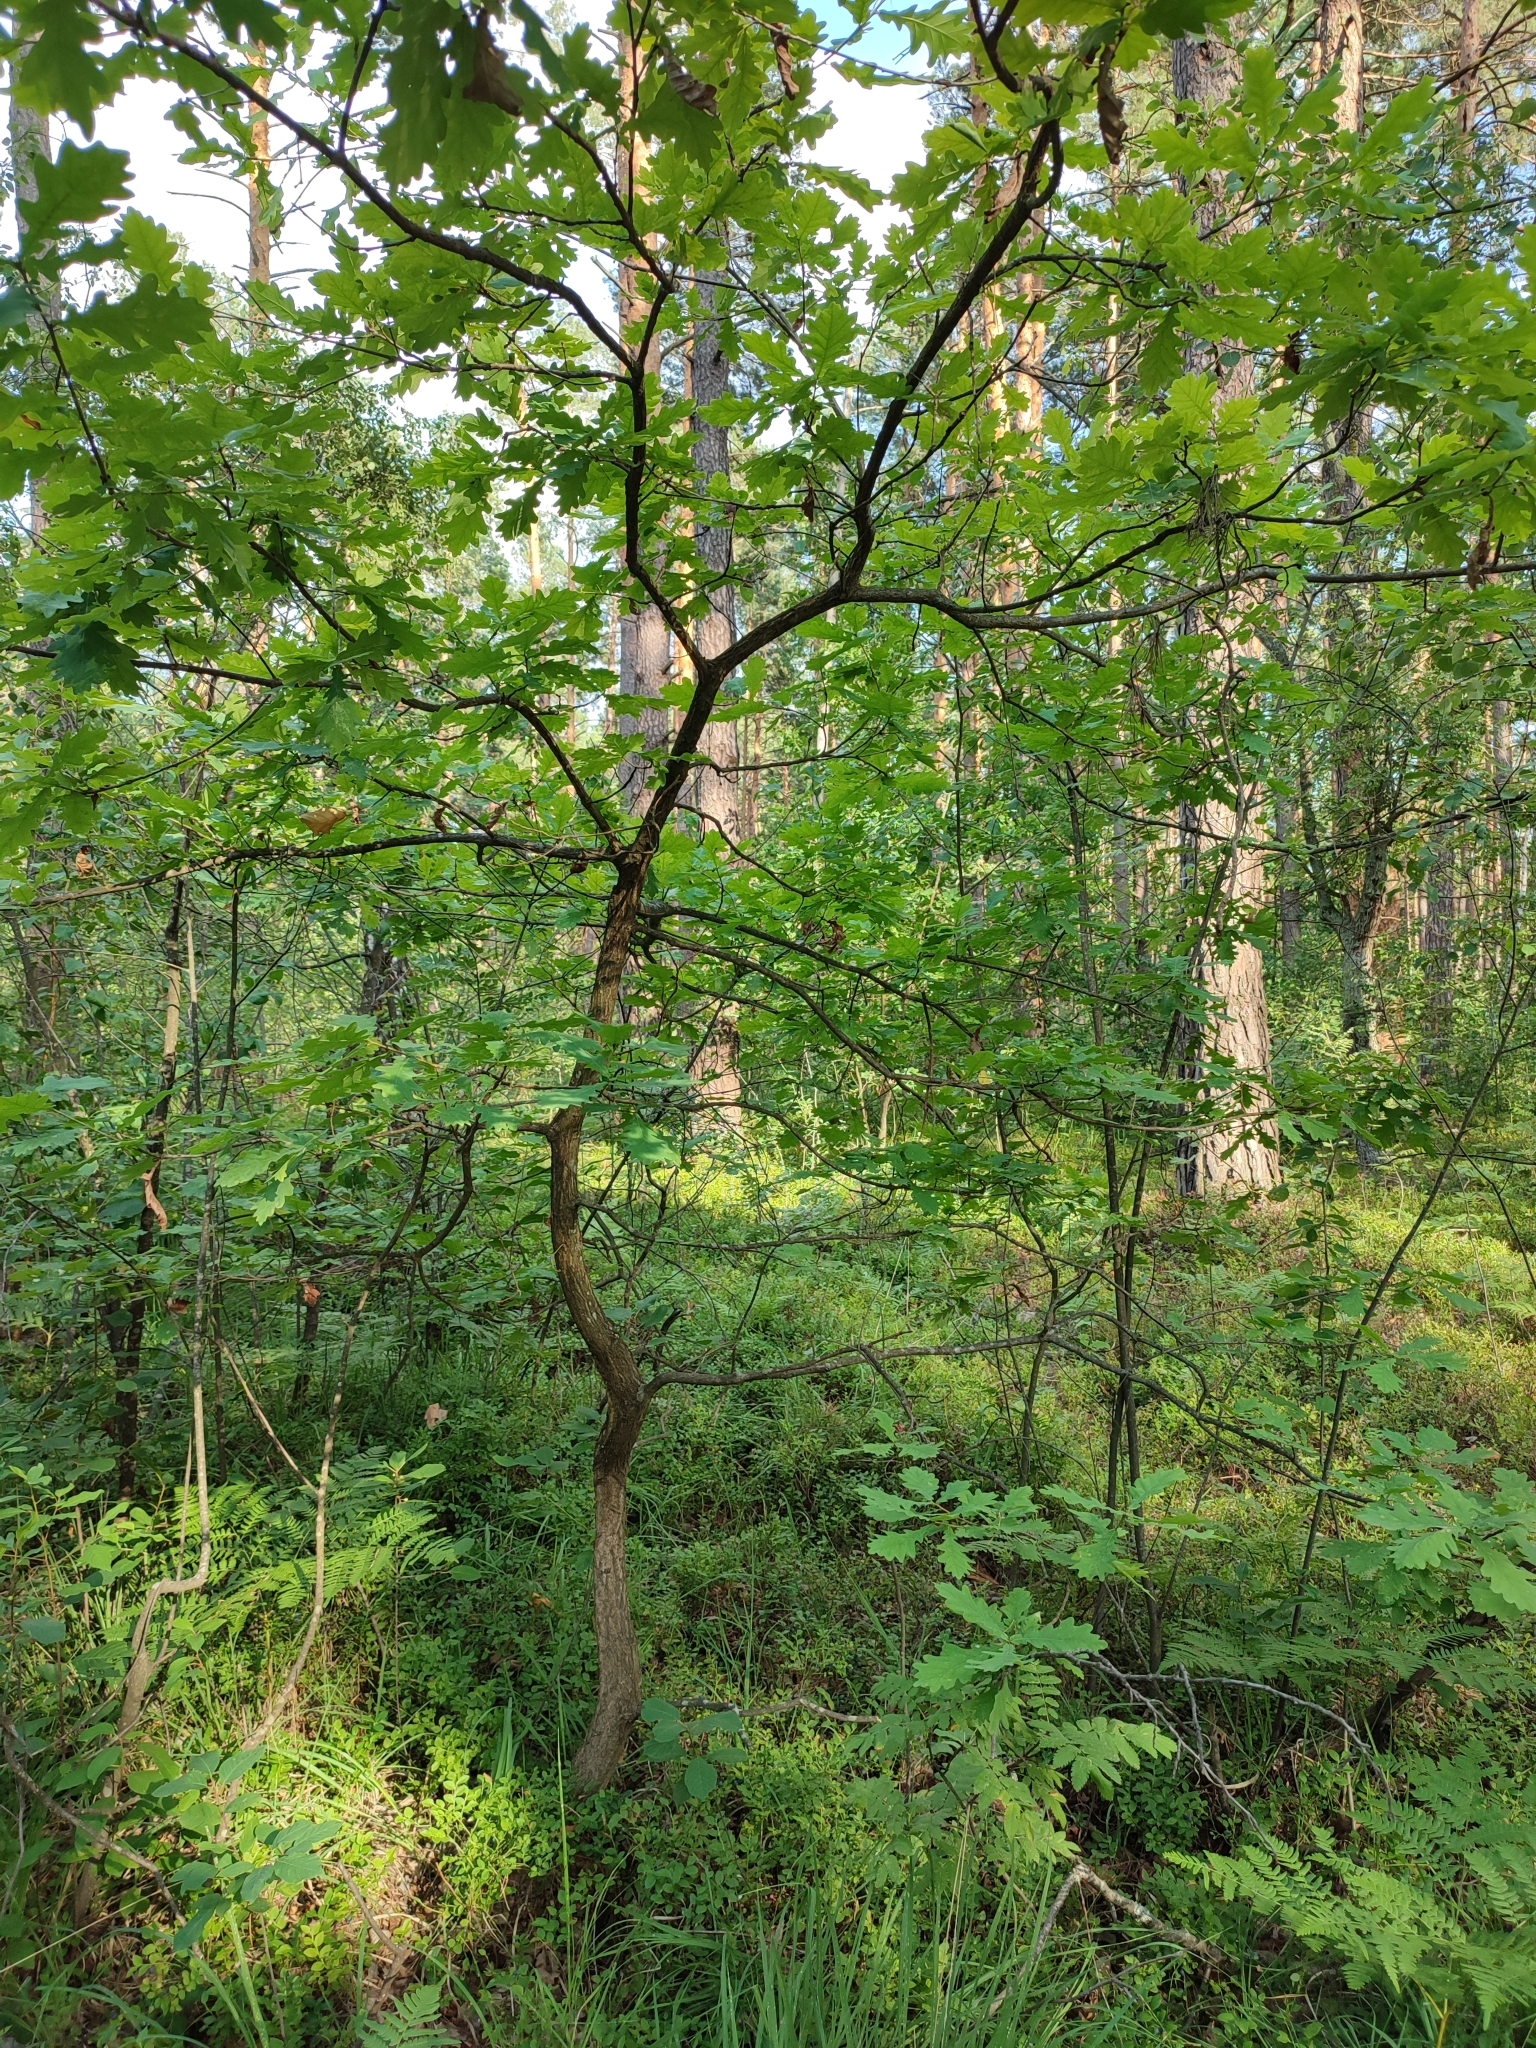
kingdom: Plantae
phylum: Tracheophyta
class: Magnoliopsida
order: Fagales
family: Fagaceae
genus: Quercus
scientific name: Quercus robur
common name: Pedunculate oak
